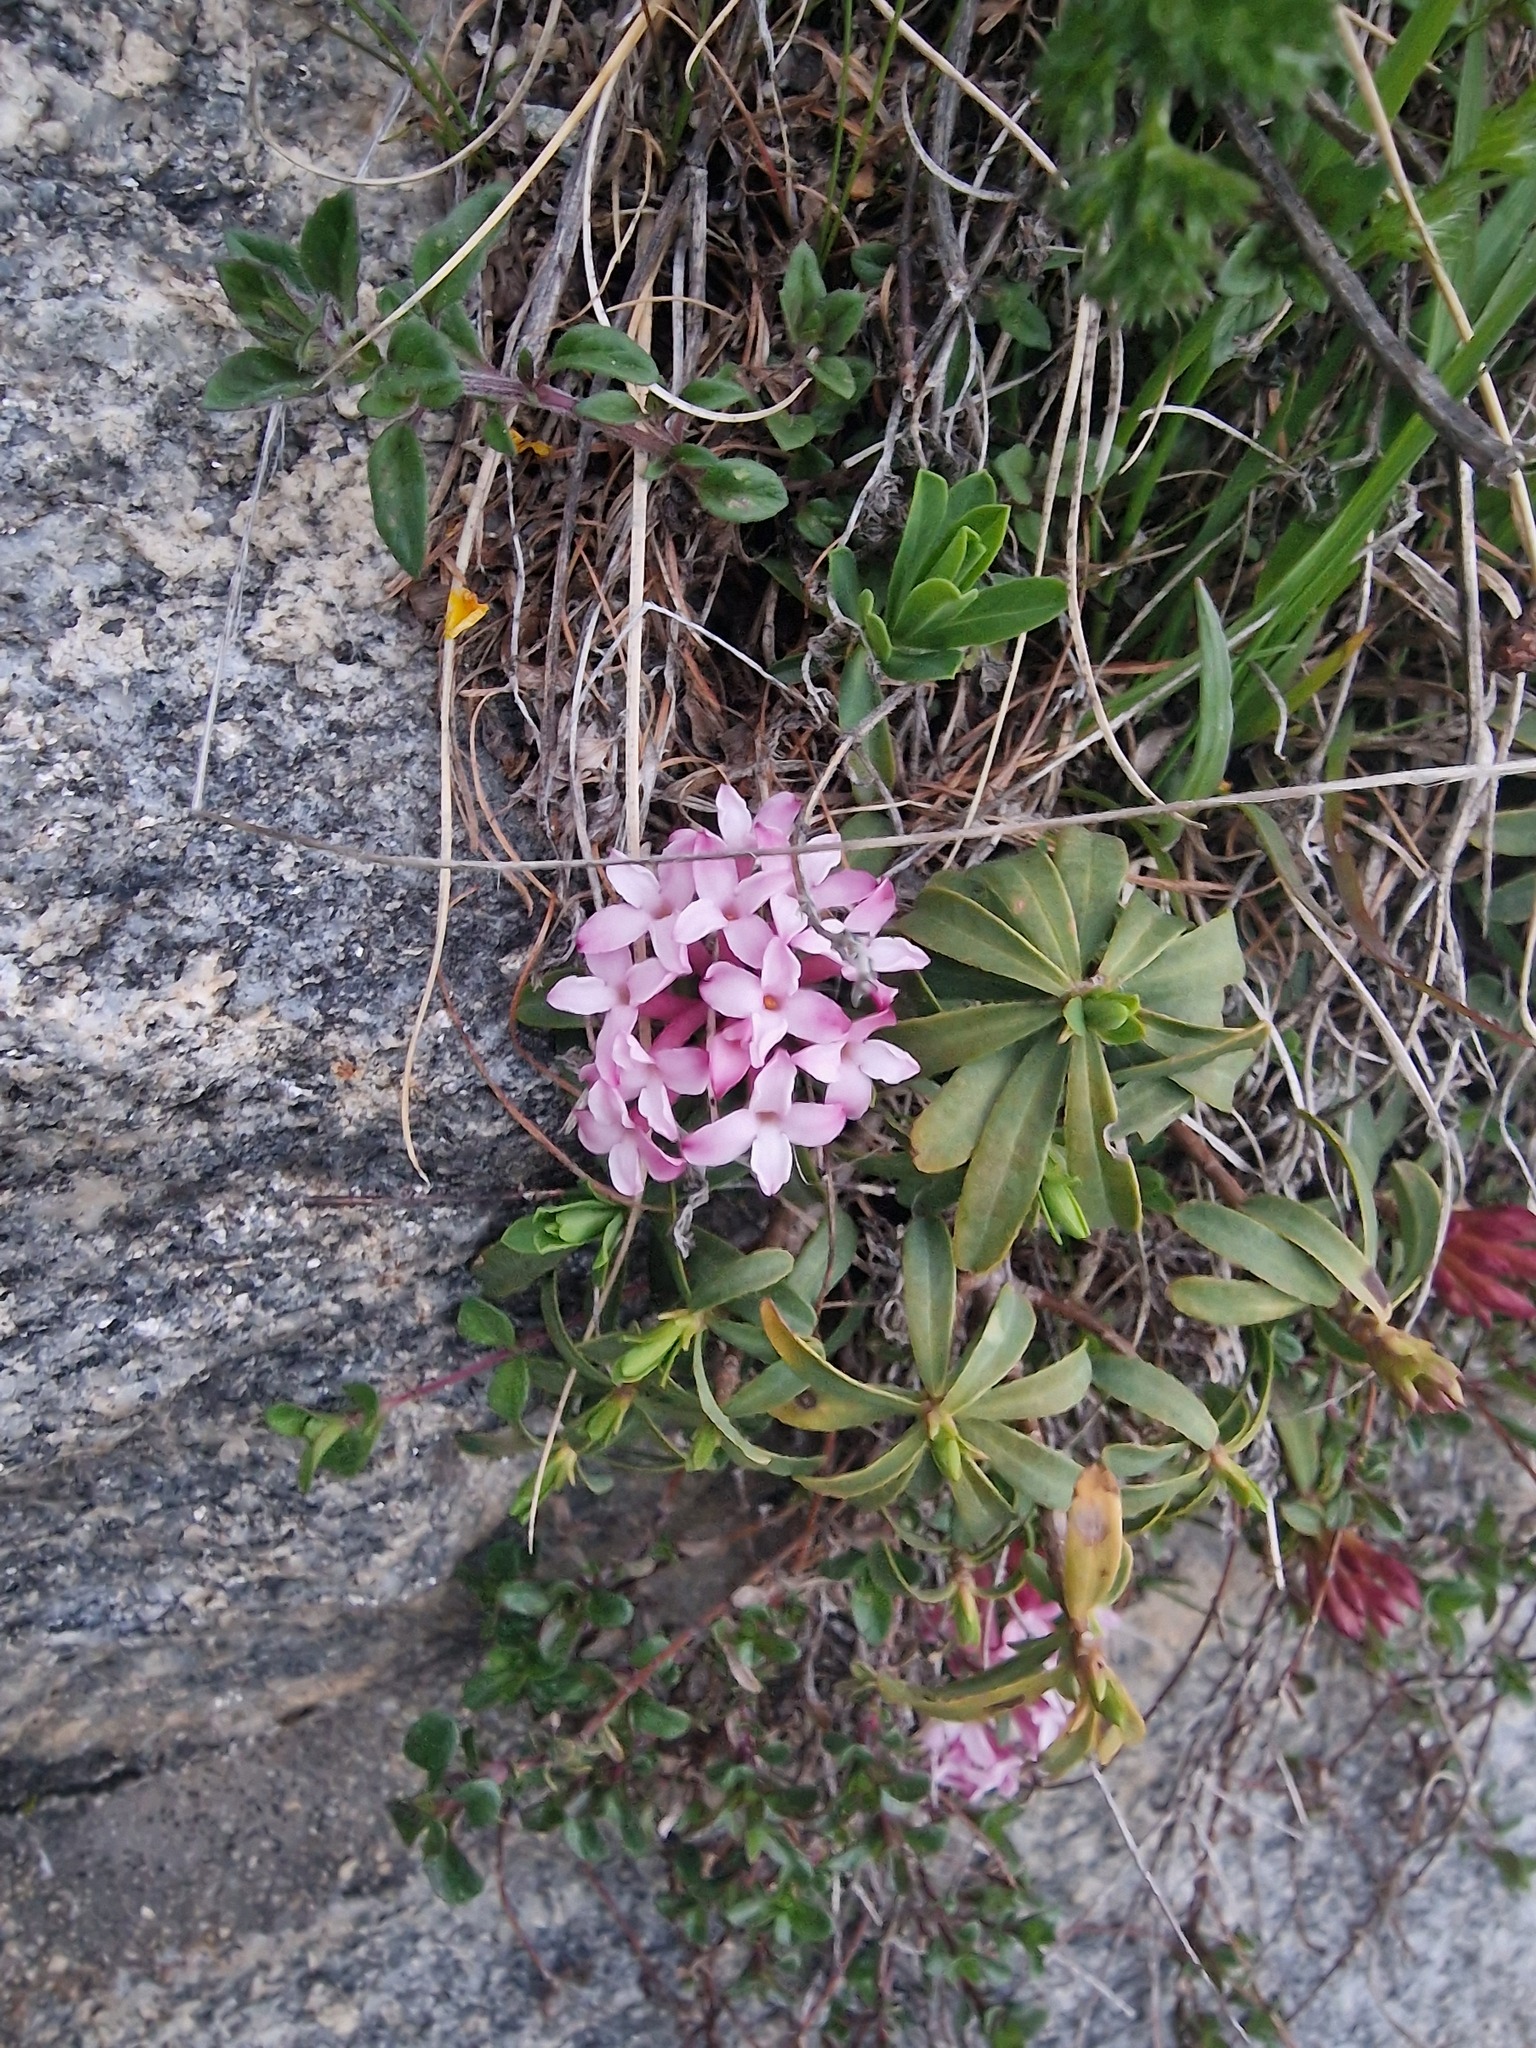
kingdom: Plantae
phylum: Tracheophyta
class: Magnoliopsida
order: Malvales
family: Thymelaeaceae
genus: Daphne
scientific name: Daphne striata
